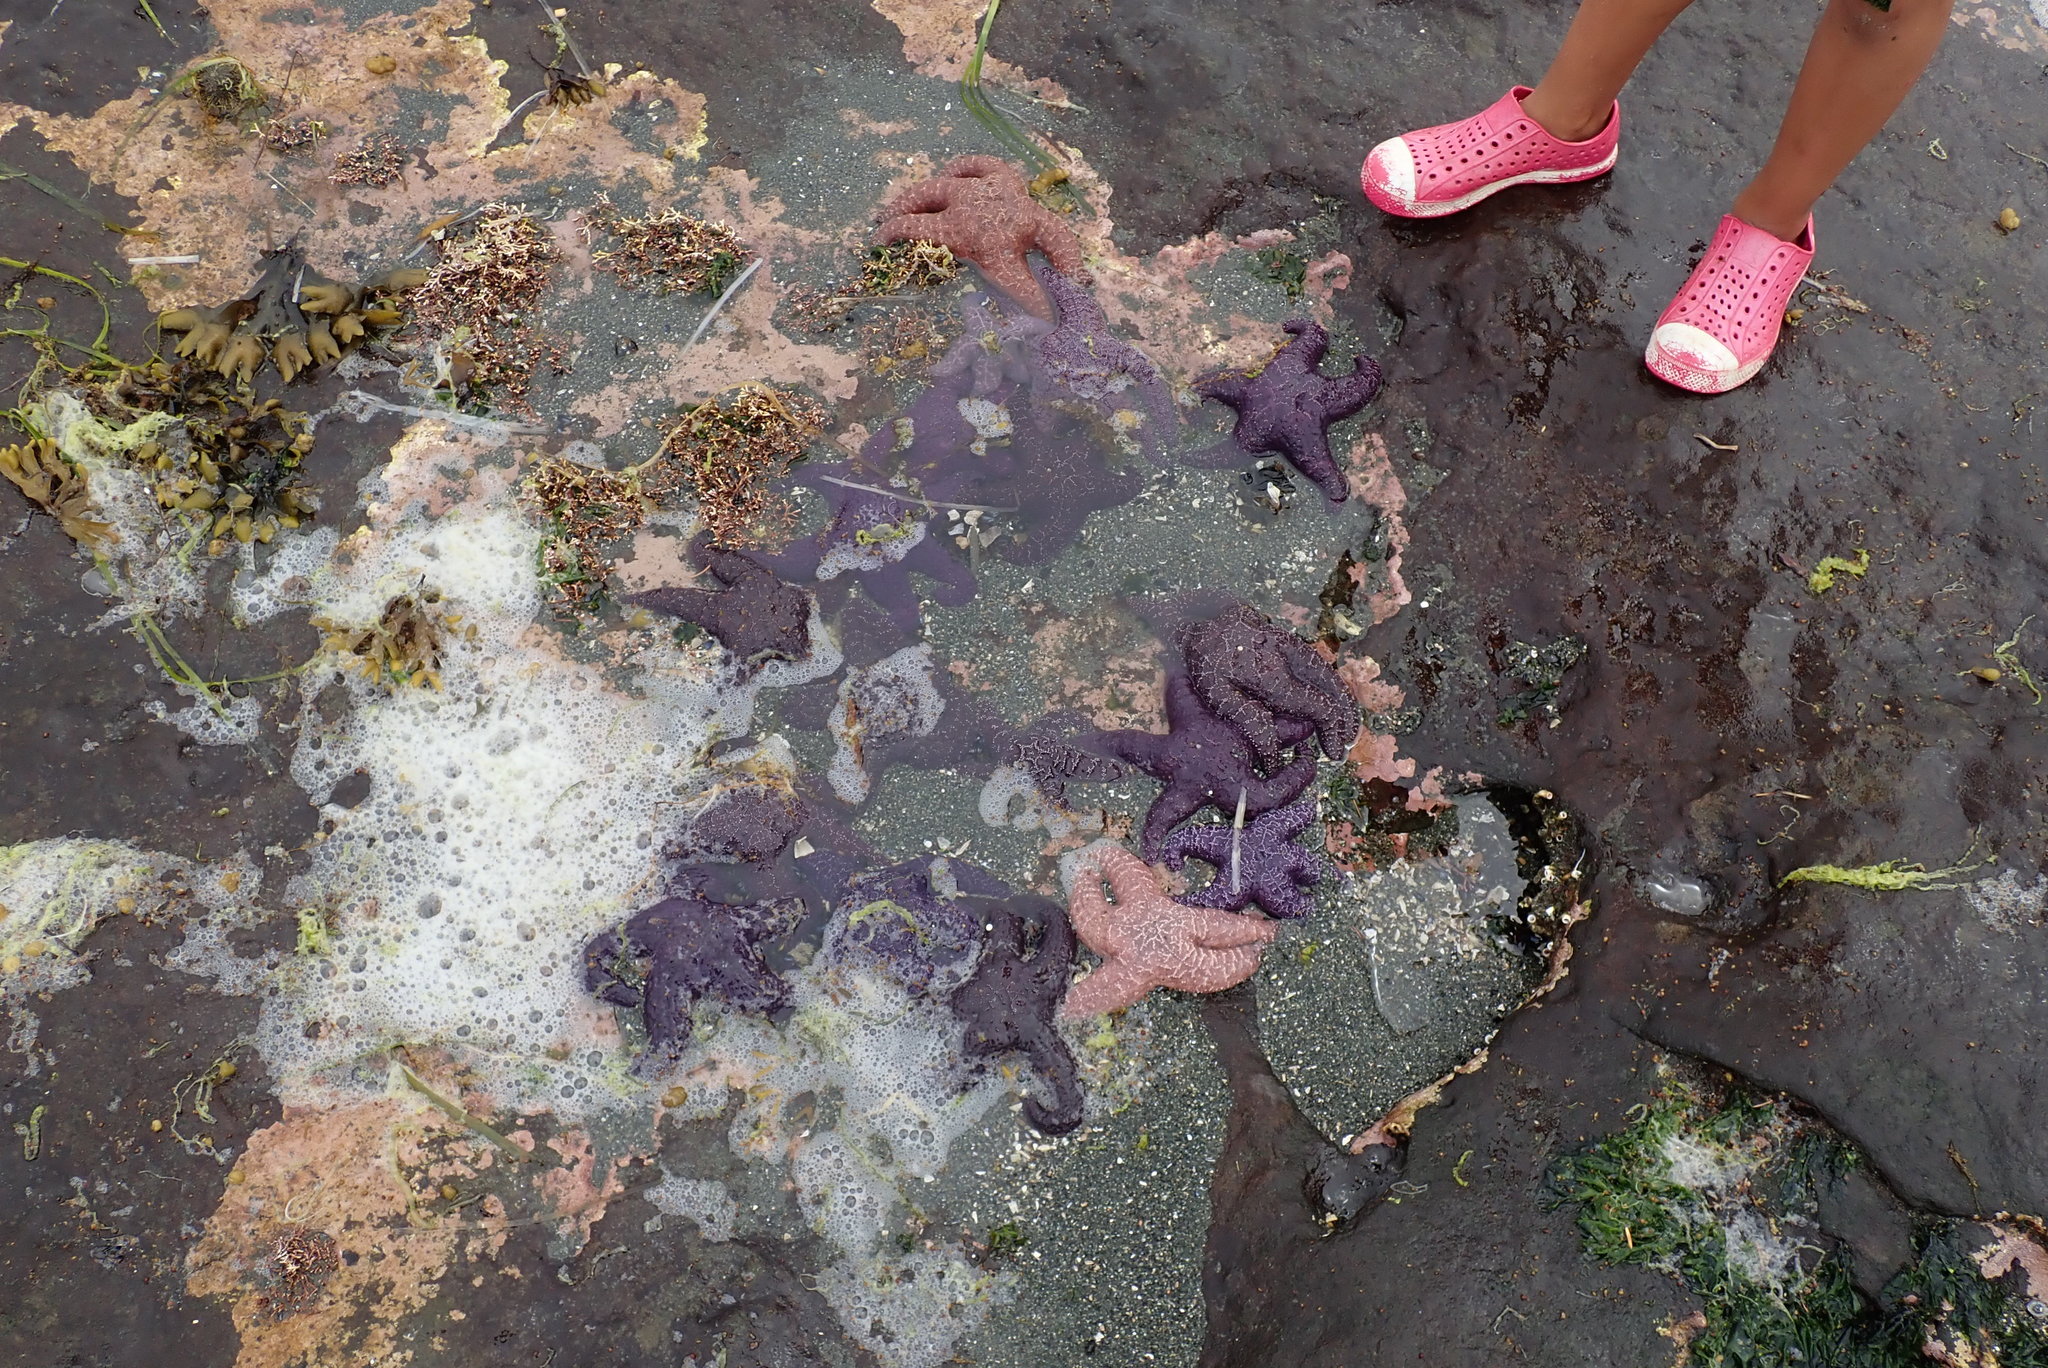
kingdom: Animalia
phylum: Echinodermata
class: Asteroidea
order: Forcipulatida
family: Asteriidae
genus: Pisaster
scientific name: Pisaster ochraceus
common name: Ochre stars
